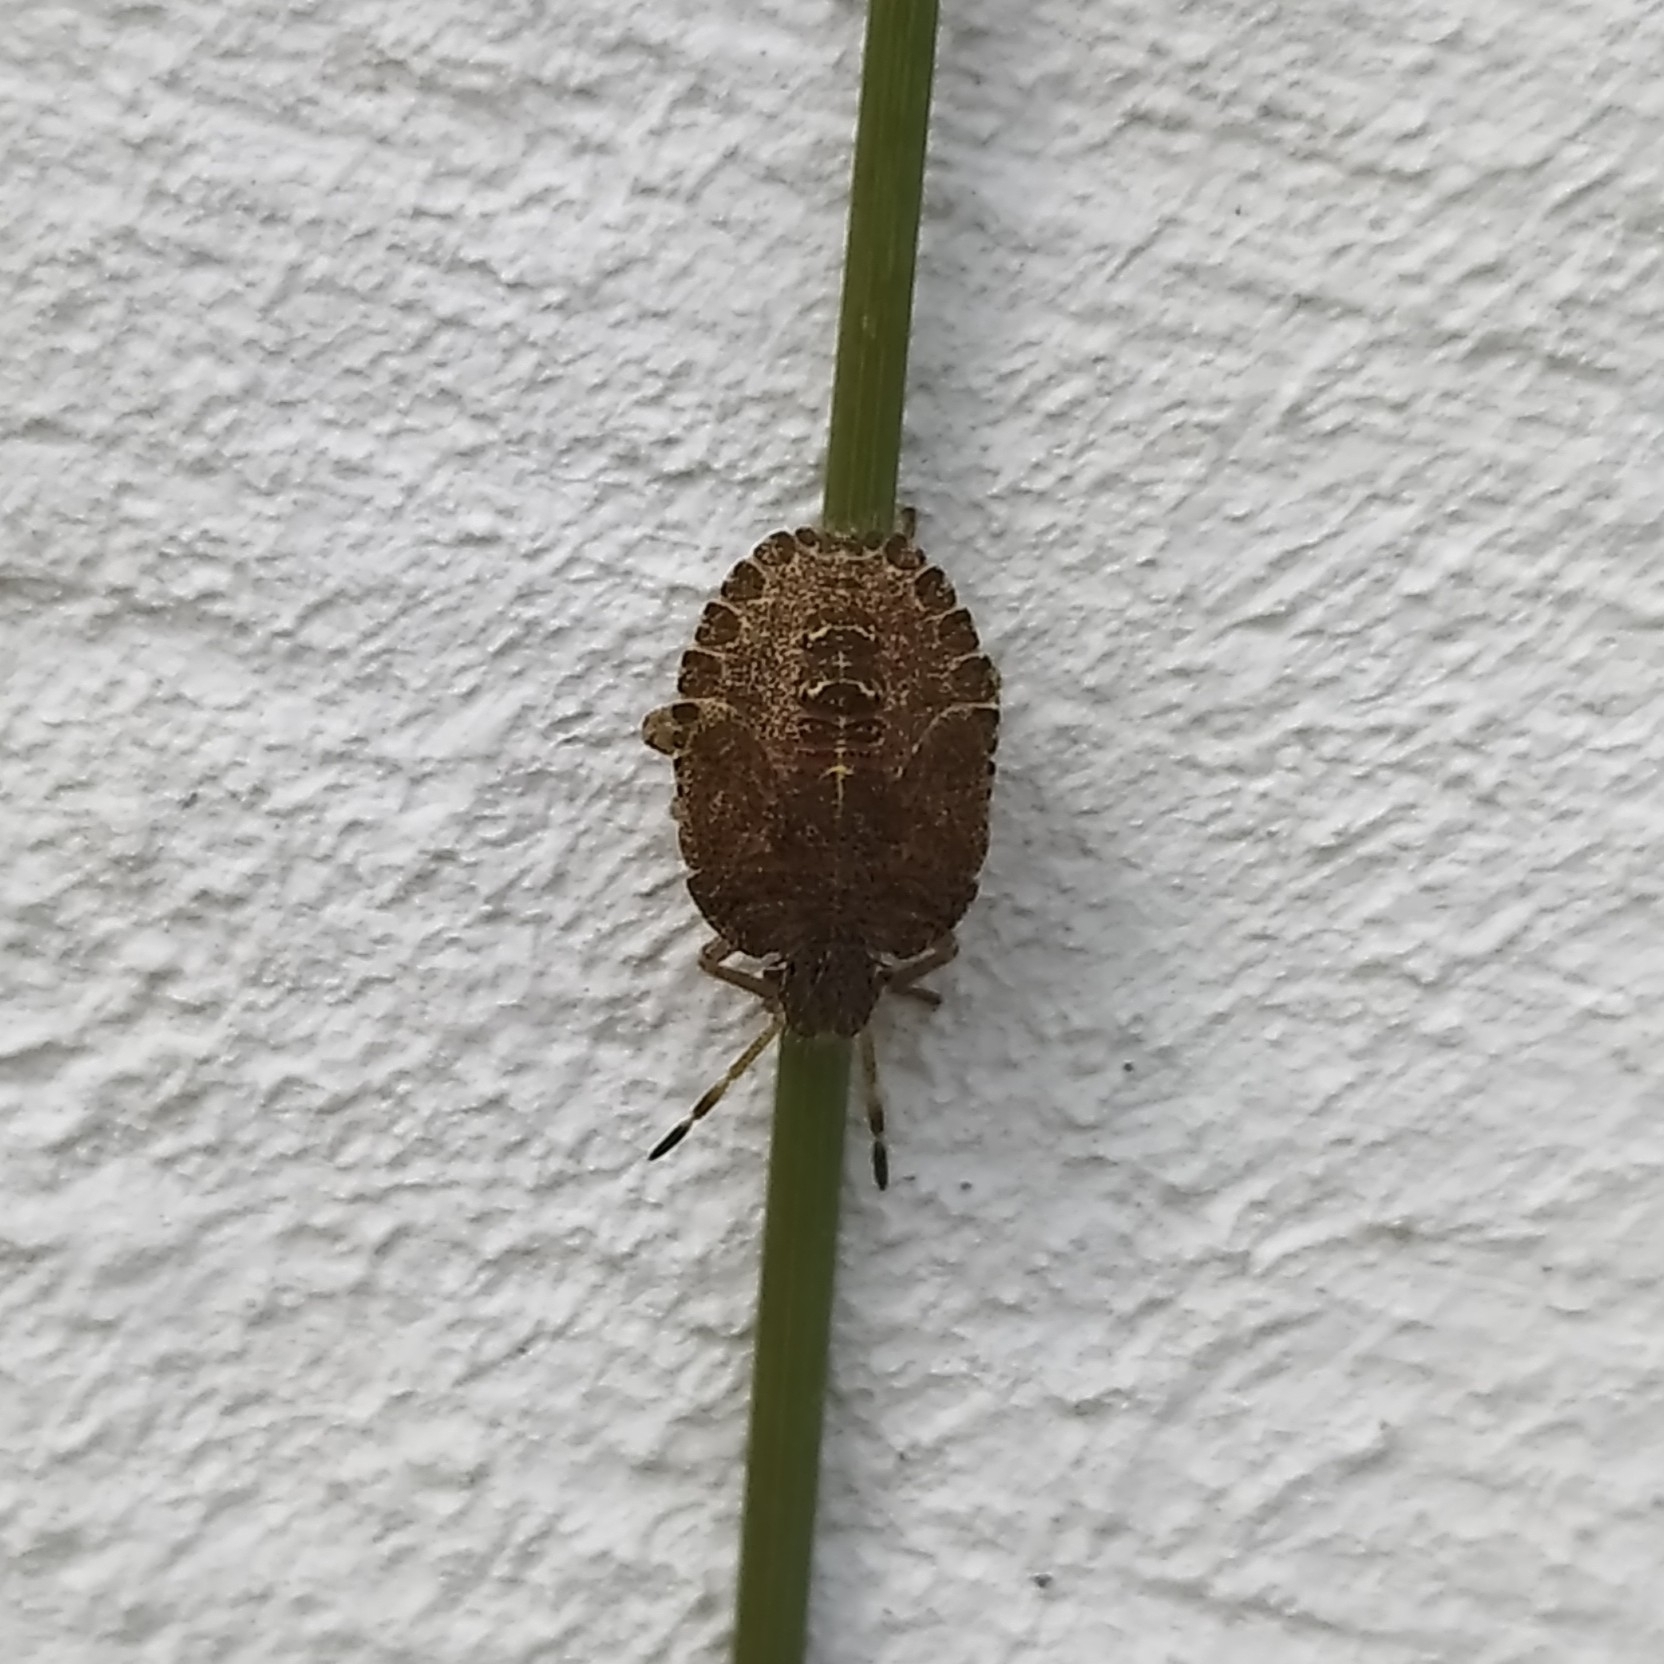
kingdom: Animalia
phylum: Arthropoda
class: Insecta
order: Hemiptera
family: Pentatomidae
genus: Dolycoris
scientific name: Dolycoris baccarum
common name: Sloe bug
